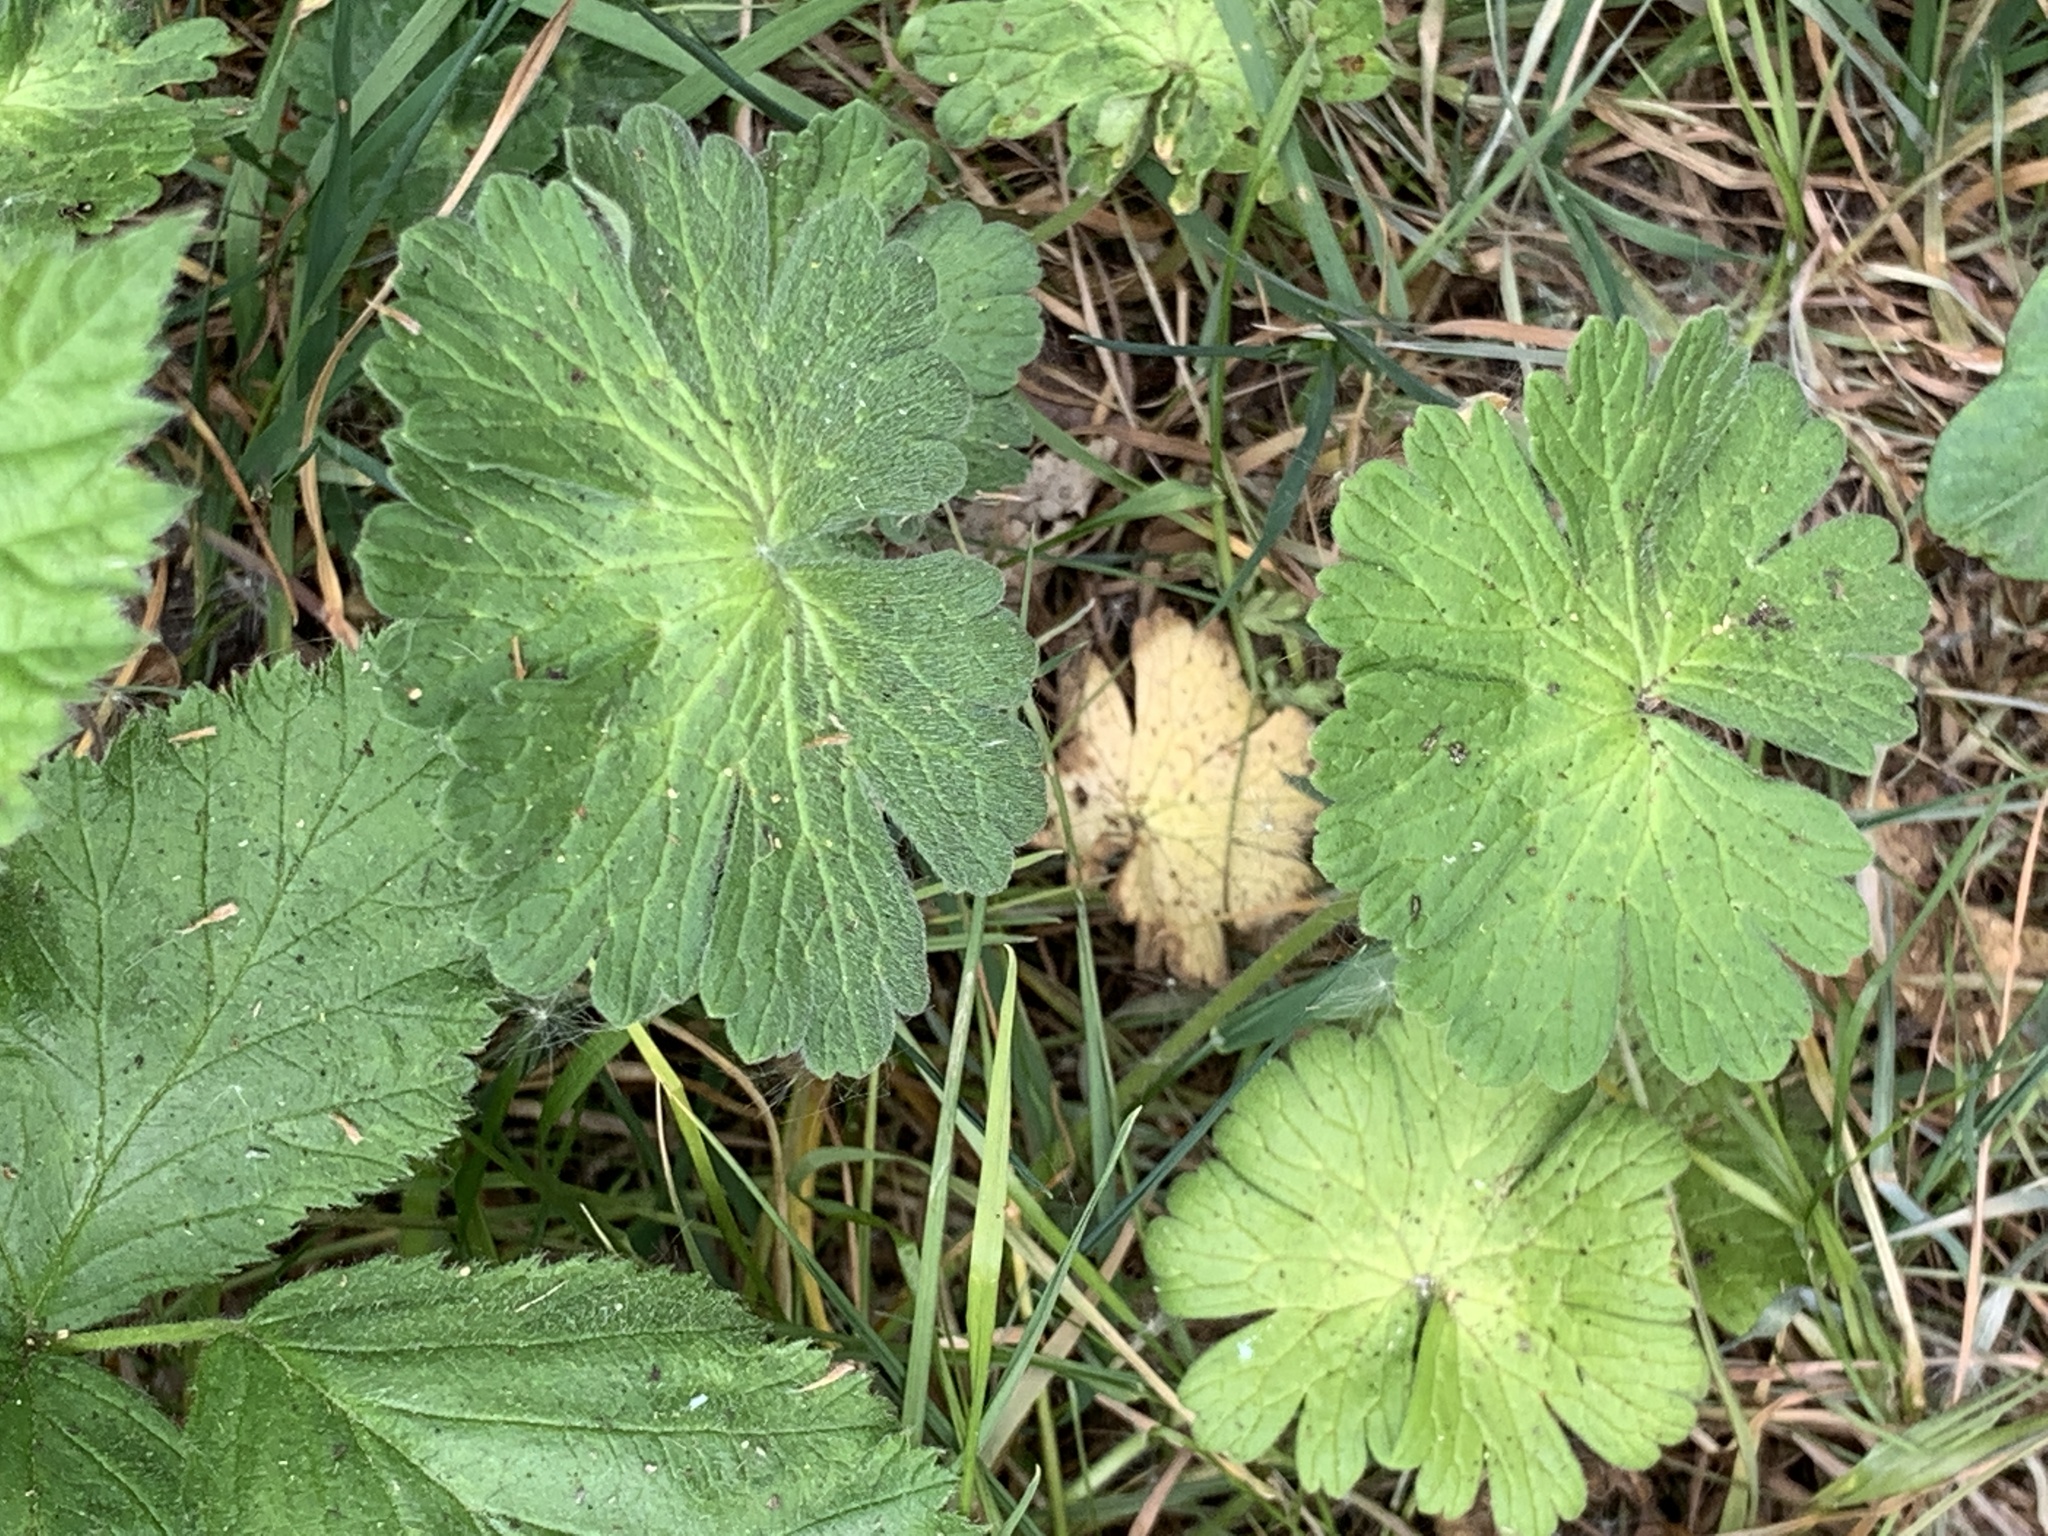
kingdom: Plantae
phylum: Tracheophyta
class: Magnoliopsida
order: Geraniales
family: Geraniaceae
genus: Geranium
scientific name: Geranium pyrenaicum
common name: Hedgerow crane's-bill
